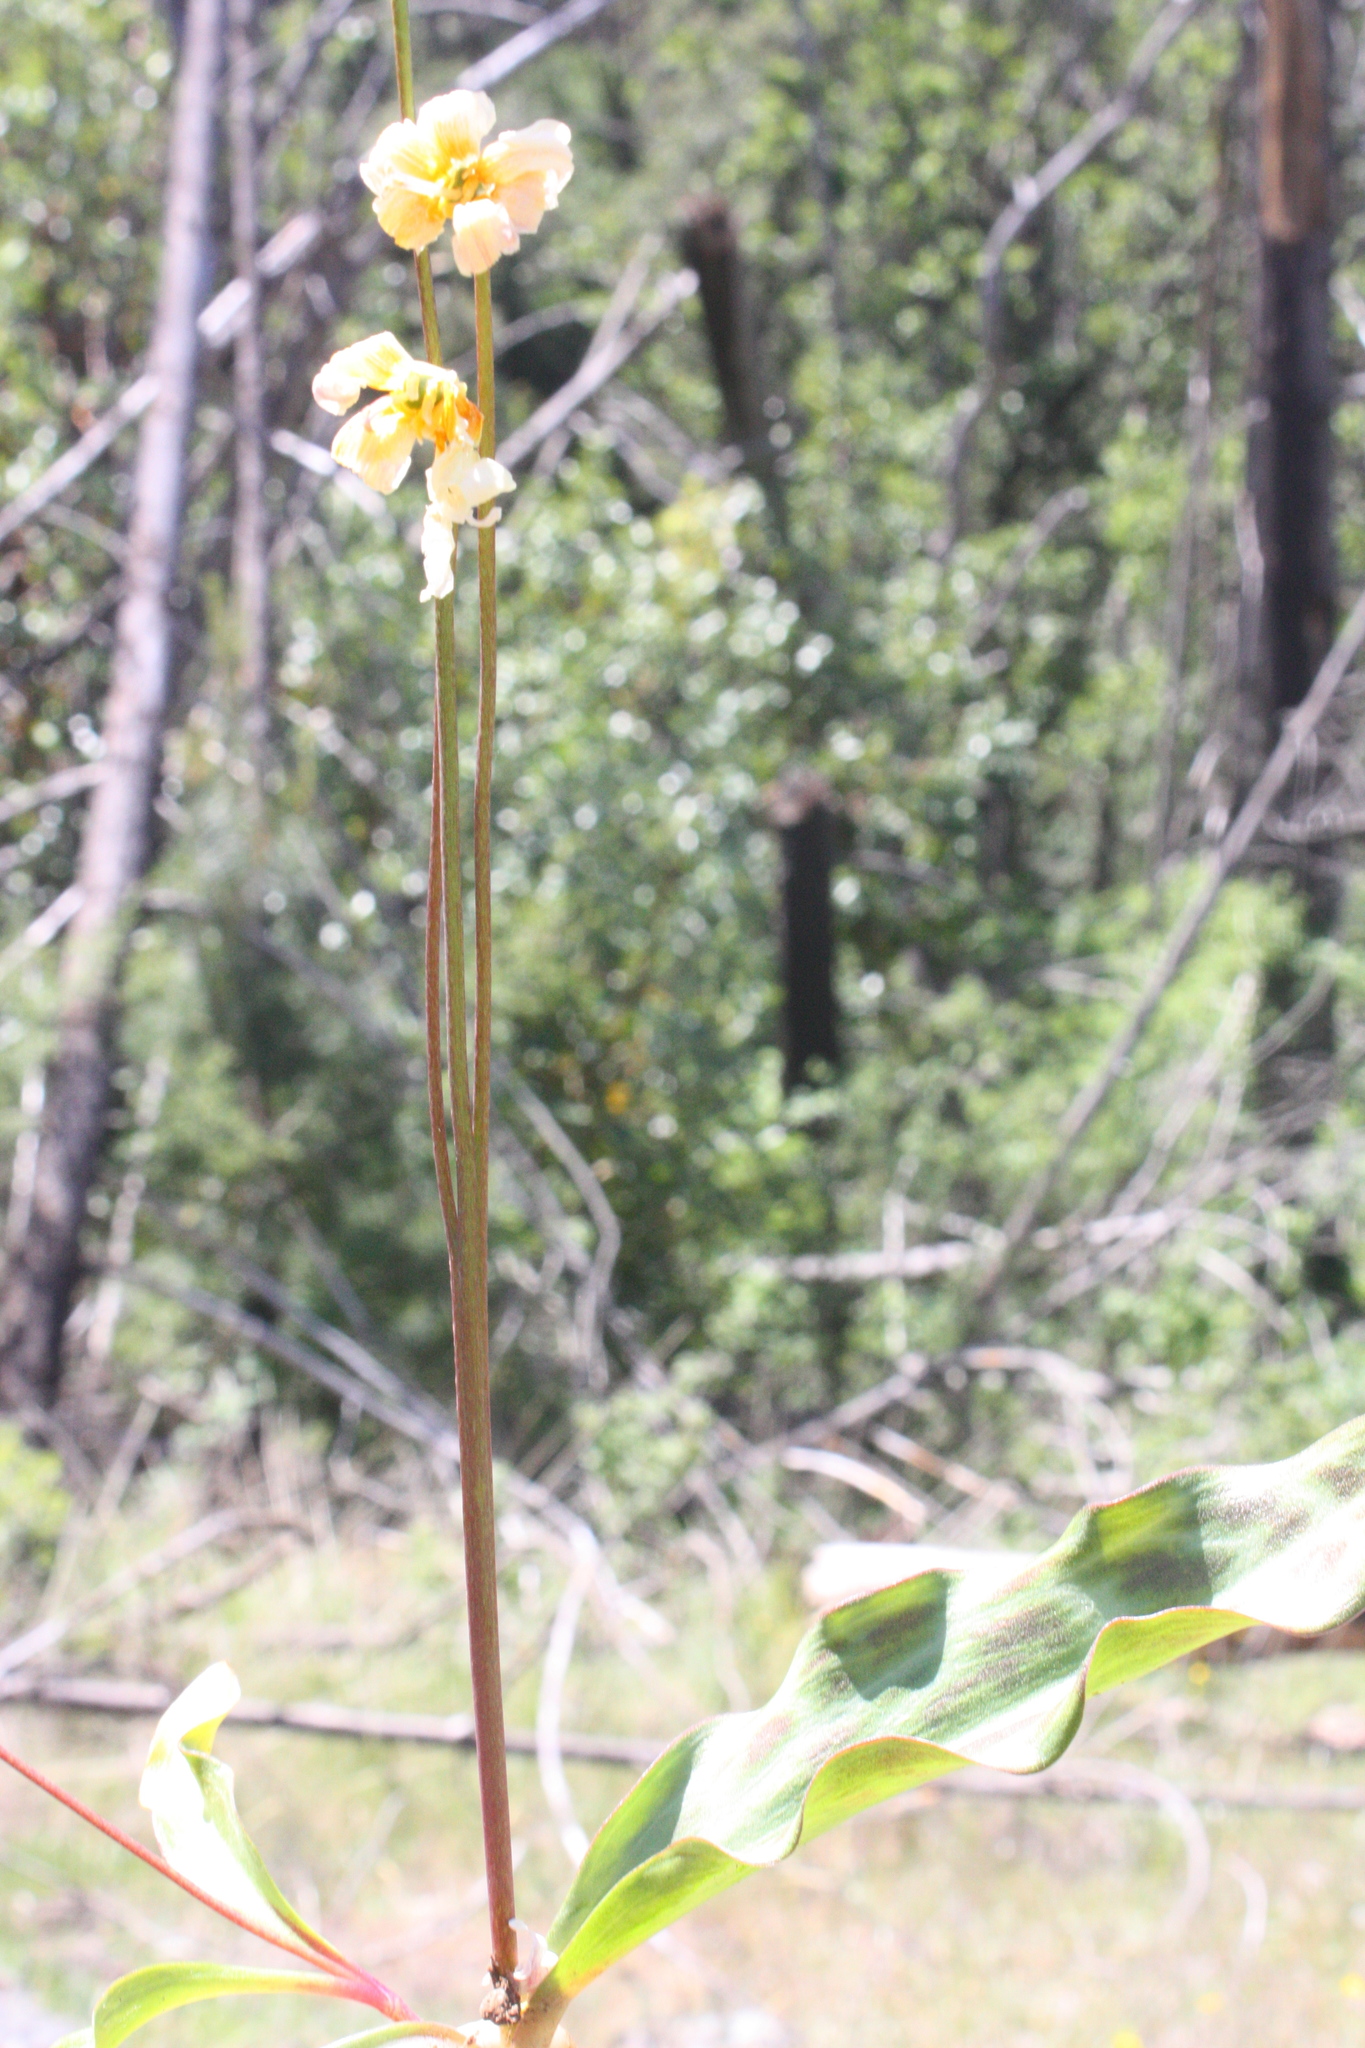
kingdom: Plantae
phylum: Tracheophyta
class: Liliopsida
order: Liliales
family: Liliaceae
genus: Erythronium
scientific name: Erythronium helenae
